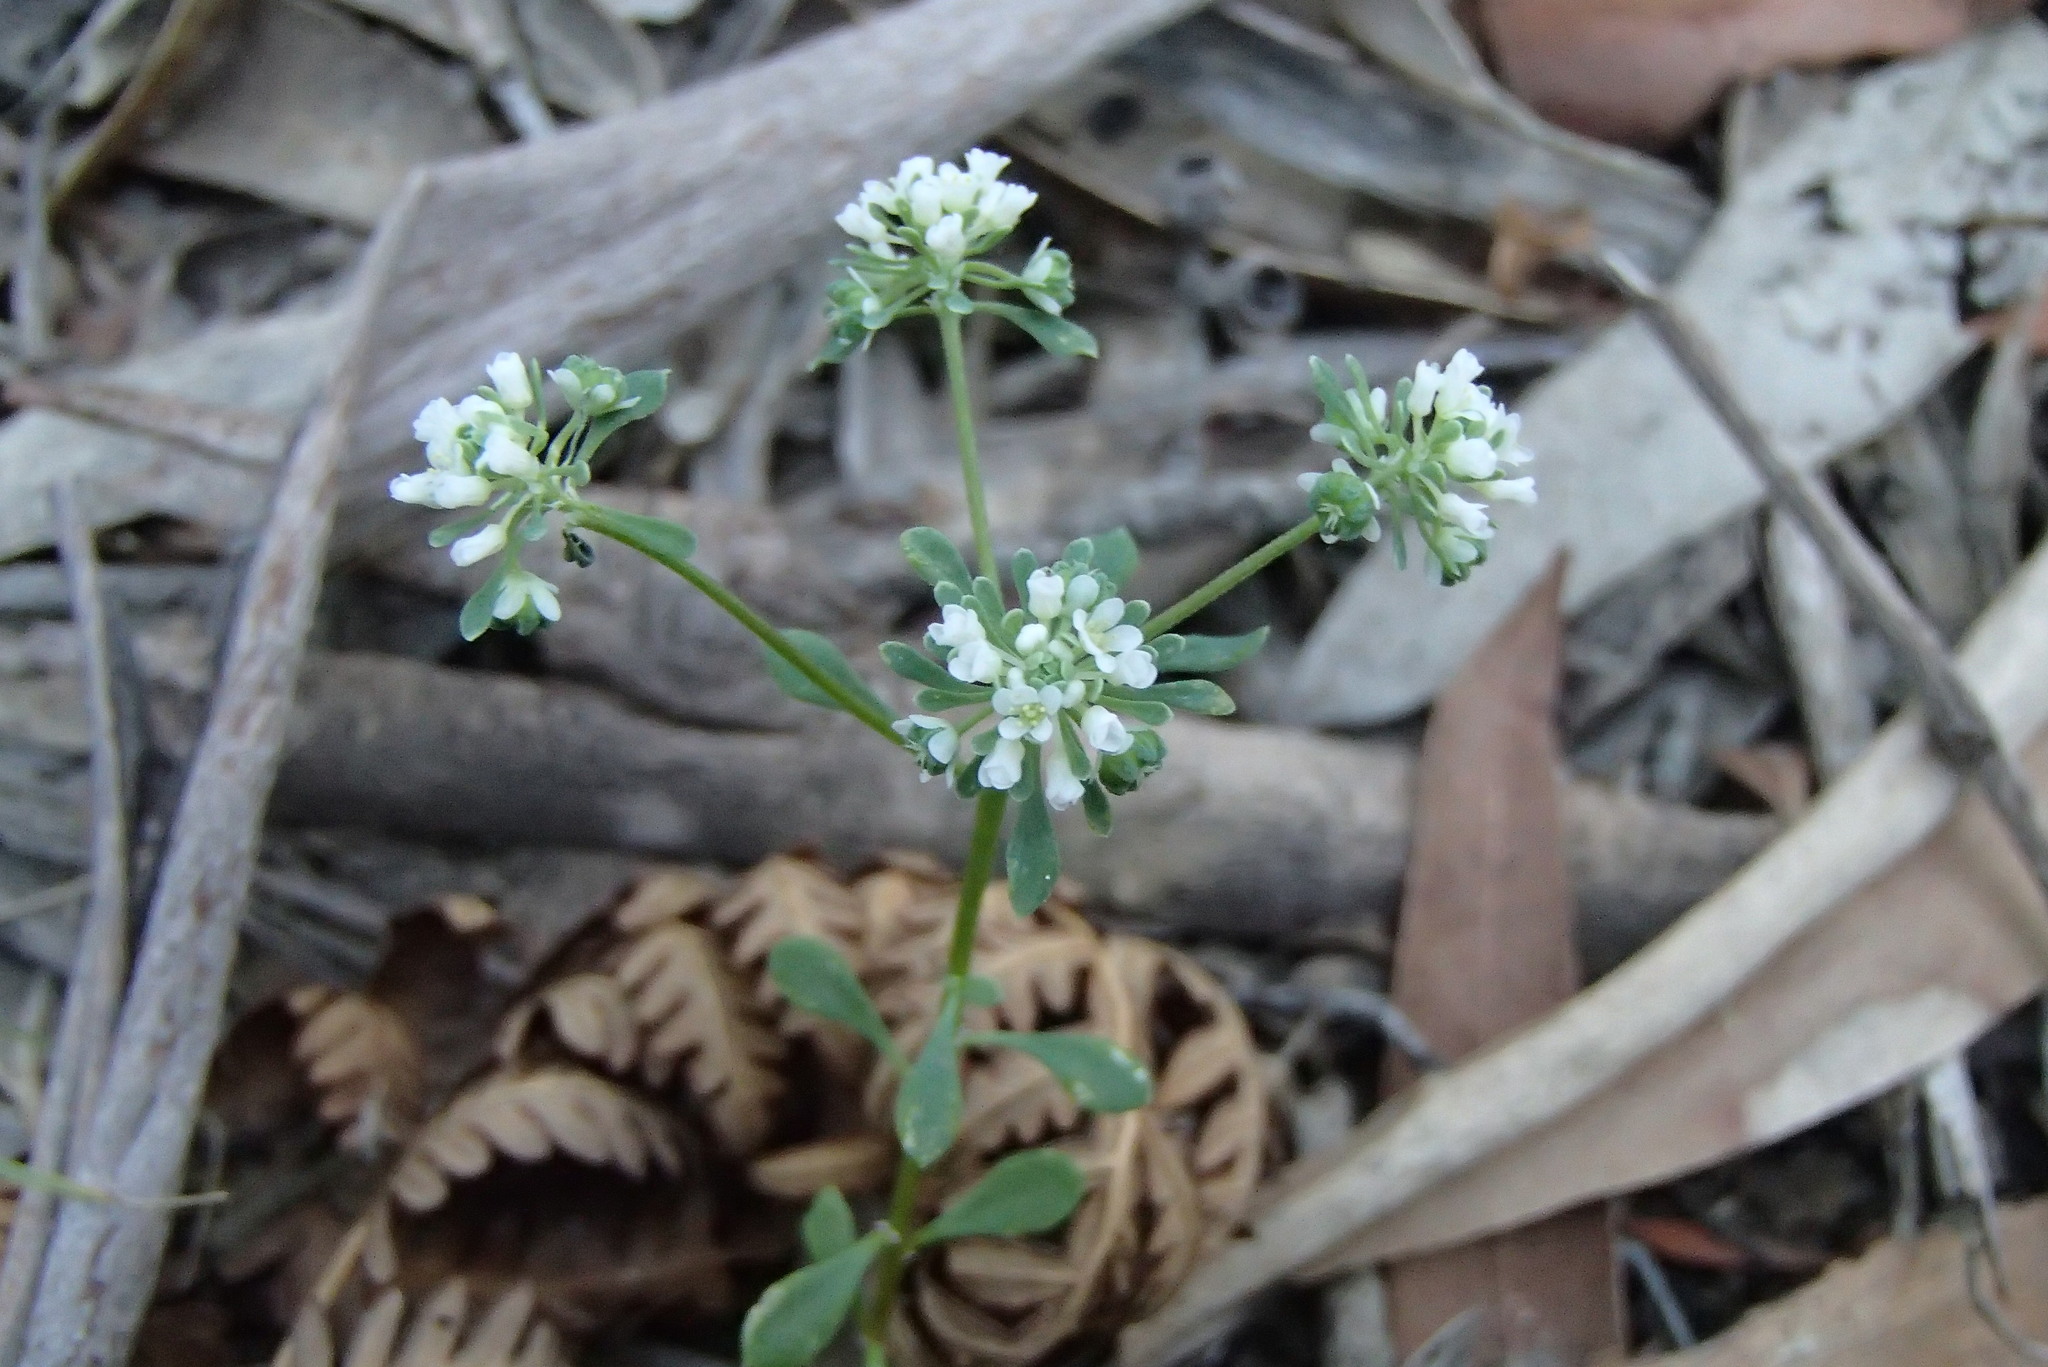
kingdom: Plantae
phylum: Tracheophyta
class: Magnoliopsida
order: Malpighiales
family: Phyllanthaceae
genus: Poranthera
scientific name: Poranthera microphylla
